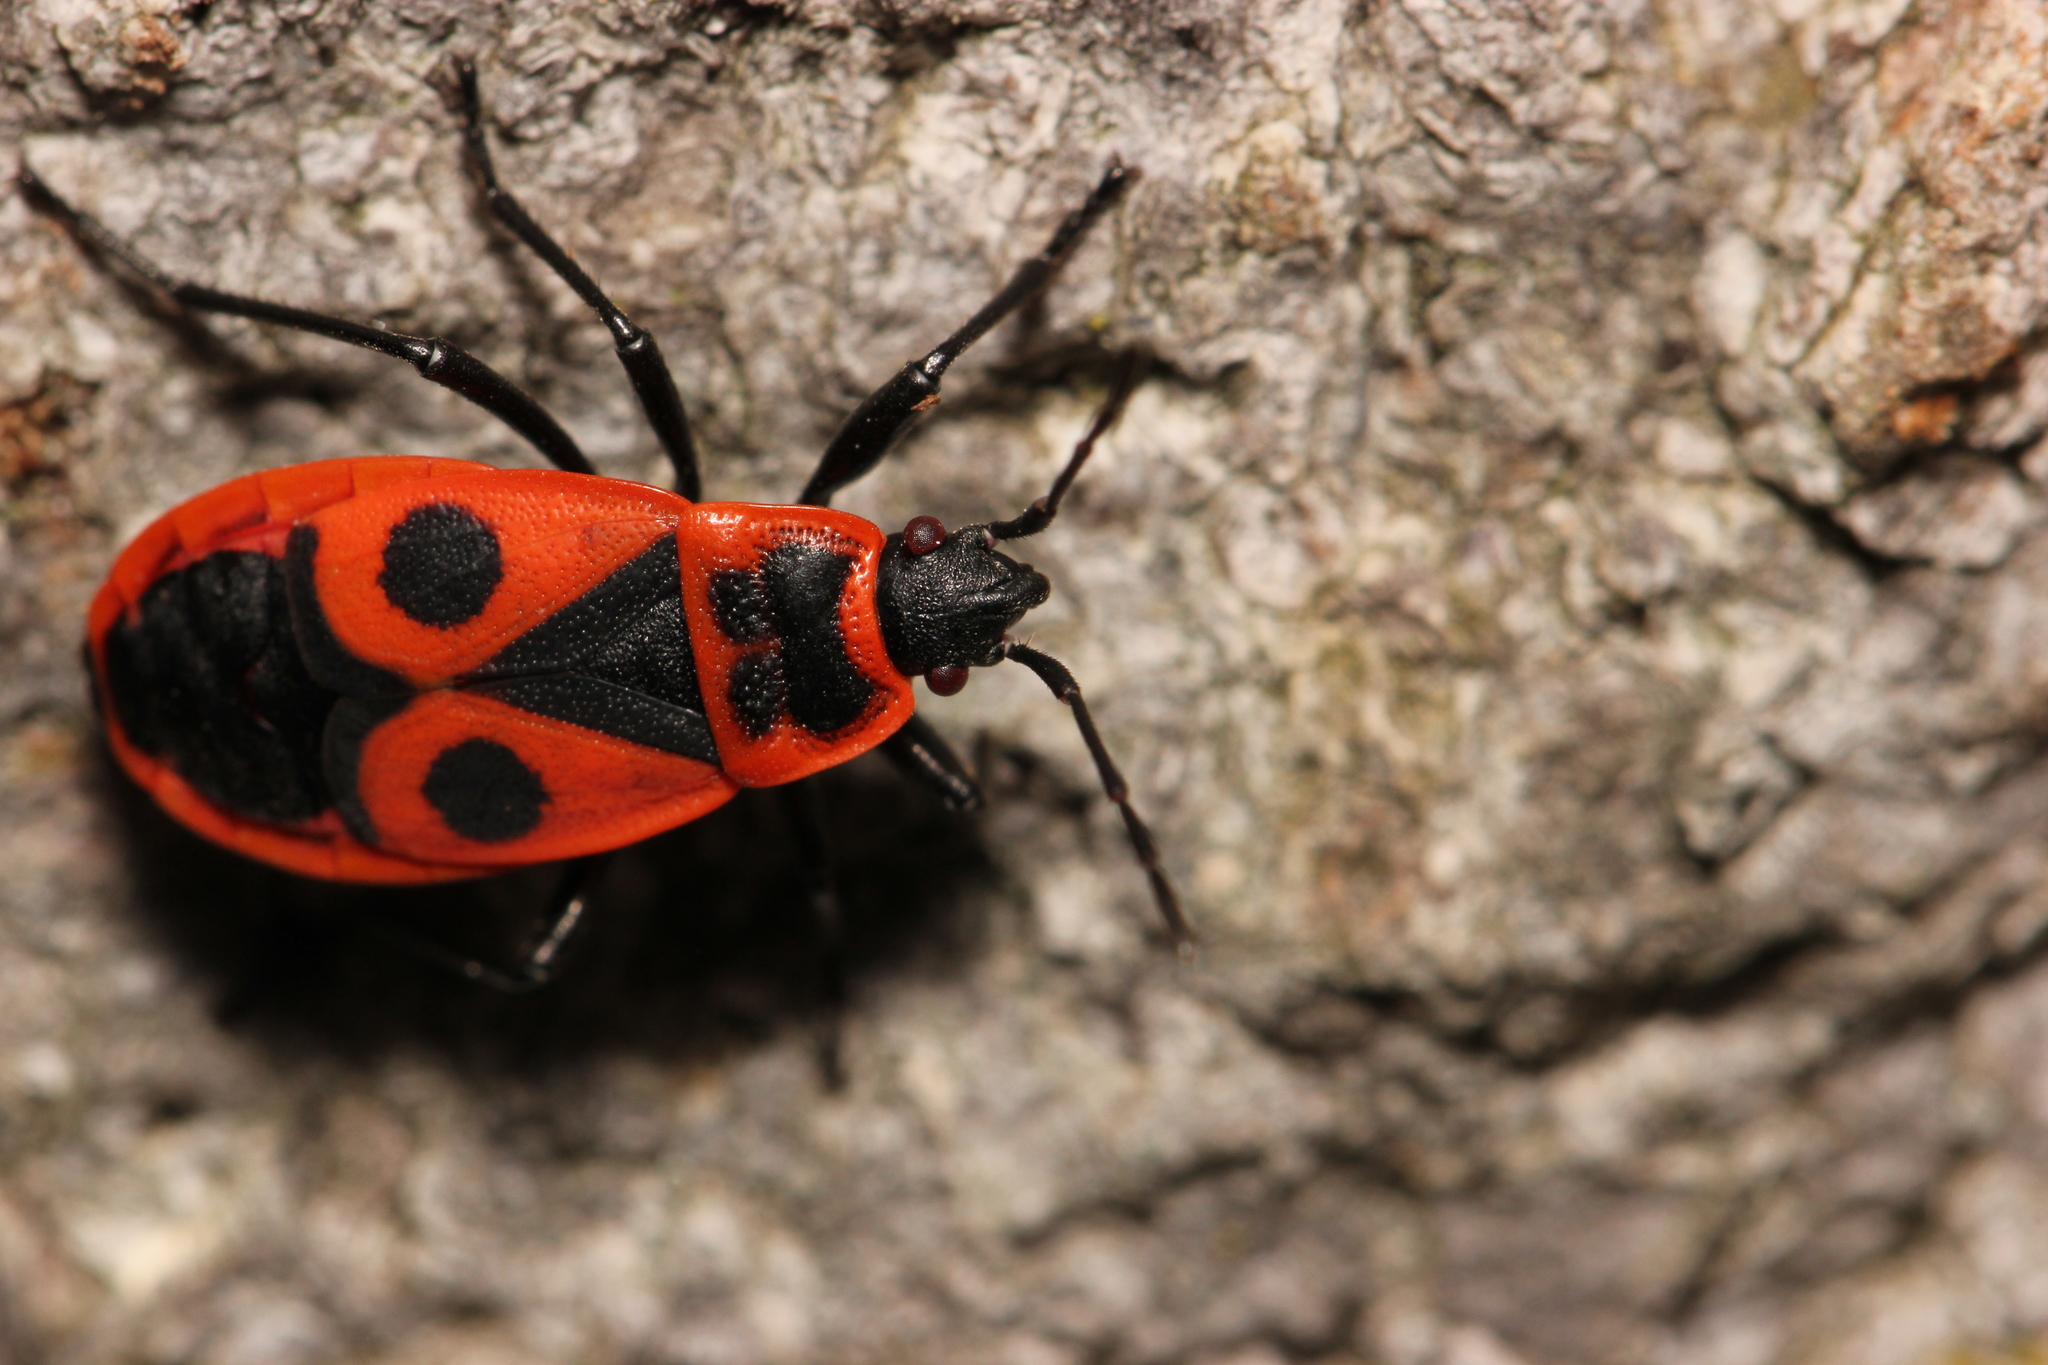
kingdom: Animalia
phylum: Arthropoda
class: Insecta
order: Hemiptera
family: Pyrrhocoridae
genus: Pyrrhocoris
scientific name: Pyrrhocoris apterus
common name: Firebug
